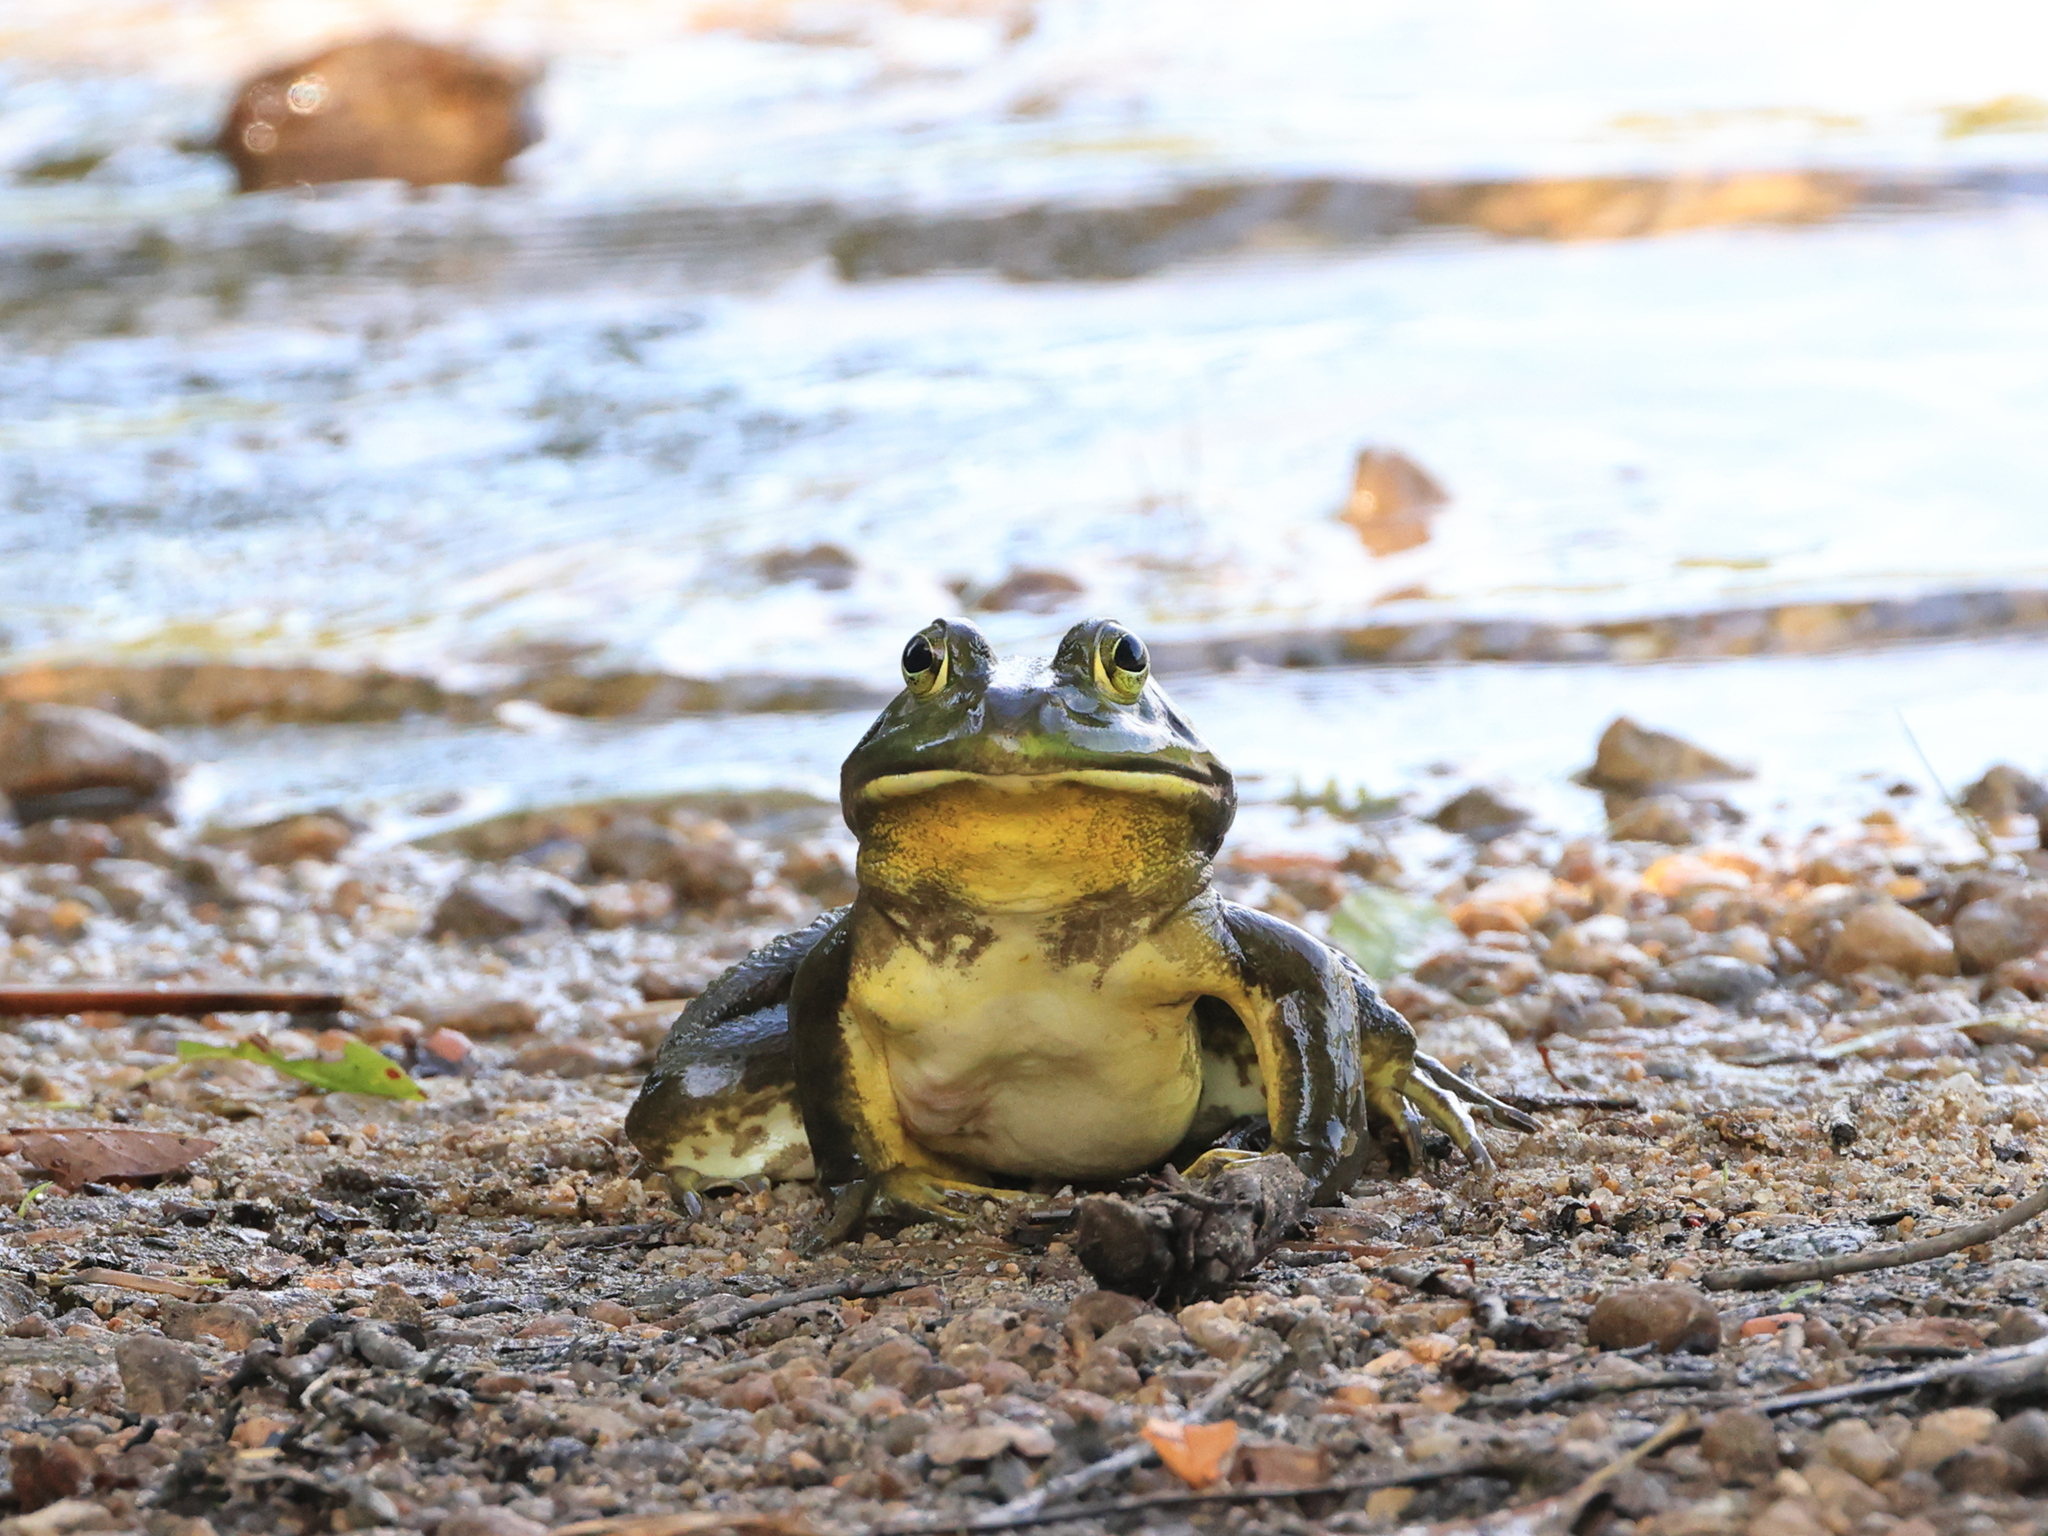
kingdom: Animalia
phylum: Chordata
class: Amphibia
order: Anura
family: Ranidae
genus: Lithobates
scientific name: Lithobates catesbeianus
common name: American bullfrog
